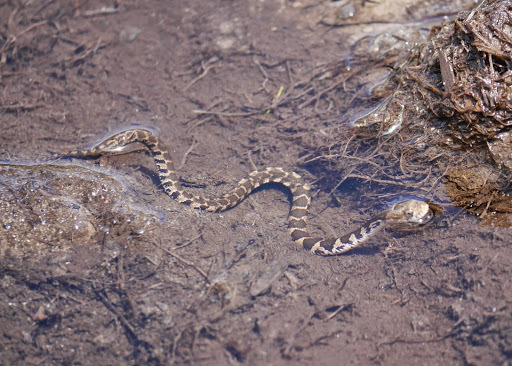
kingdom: Animalia
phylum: Chordata
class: Squamata
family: Colubridae
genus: Nerodia
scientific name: Nerodia sipedon
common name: Northern water snake
